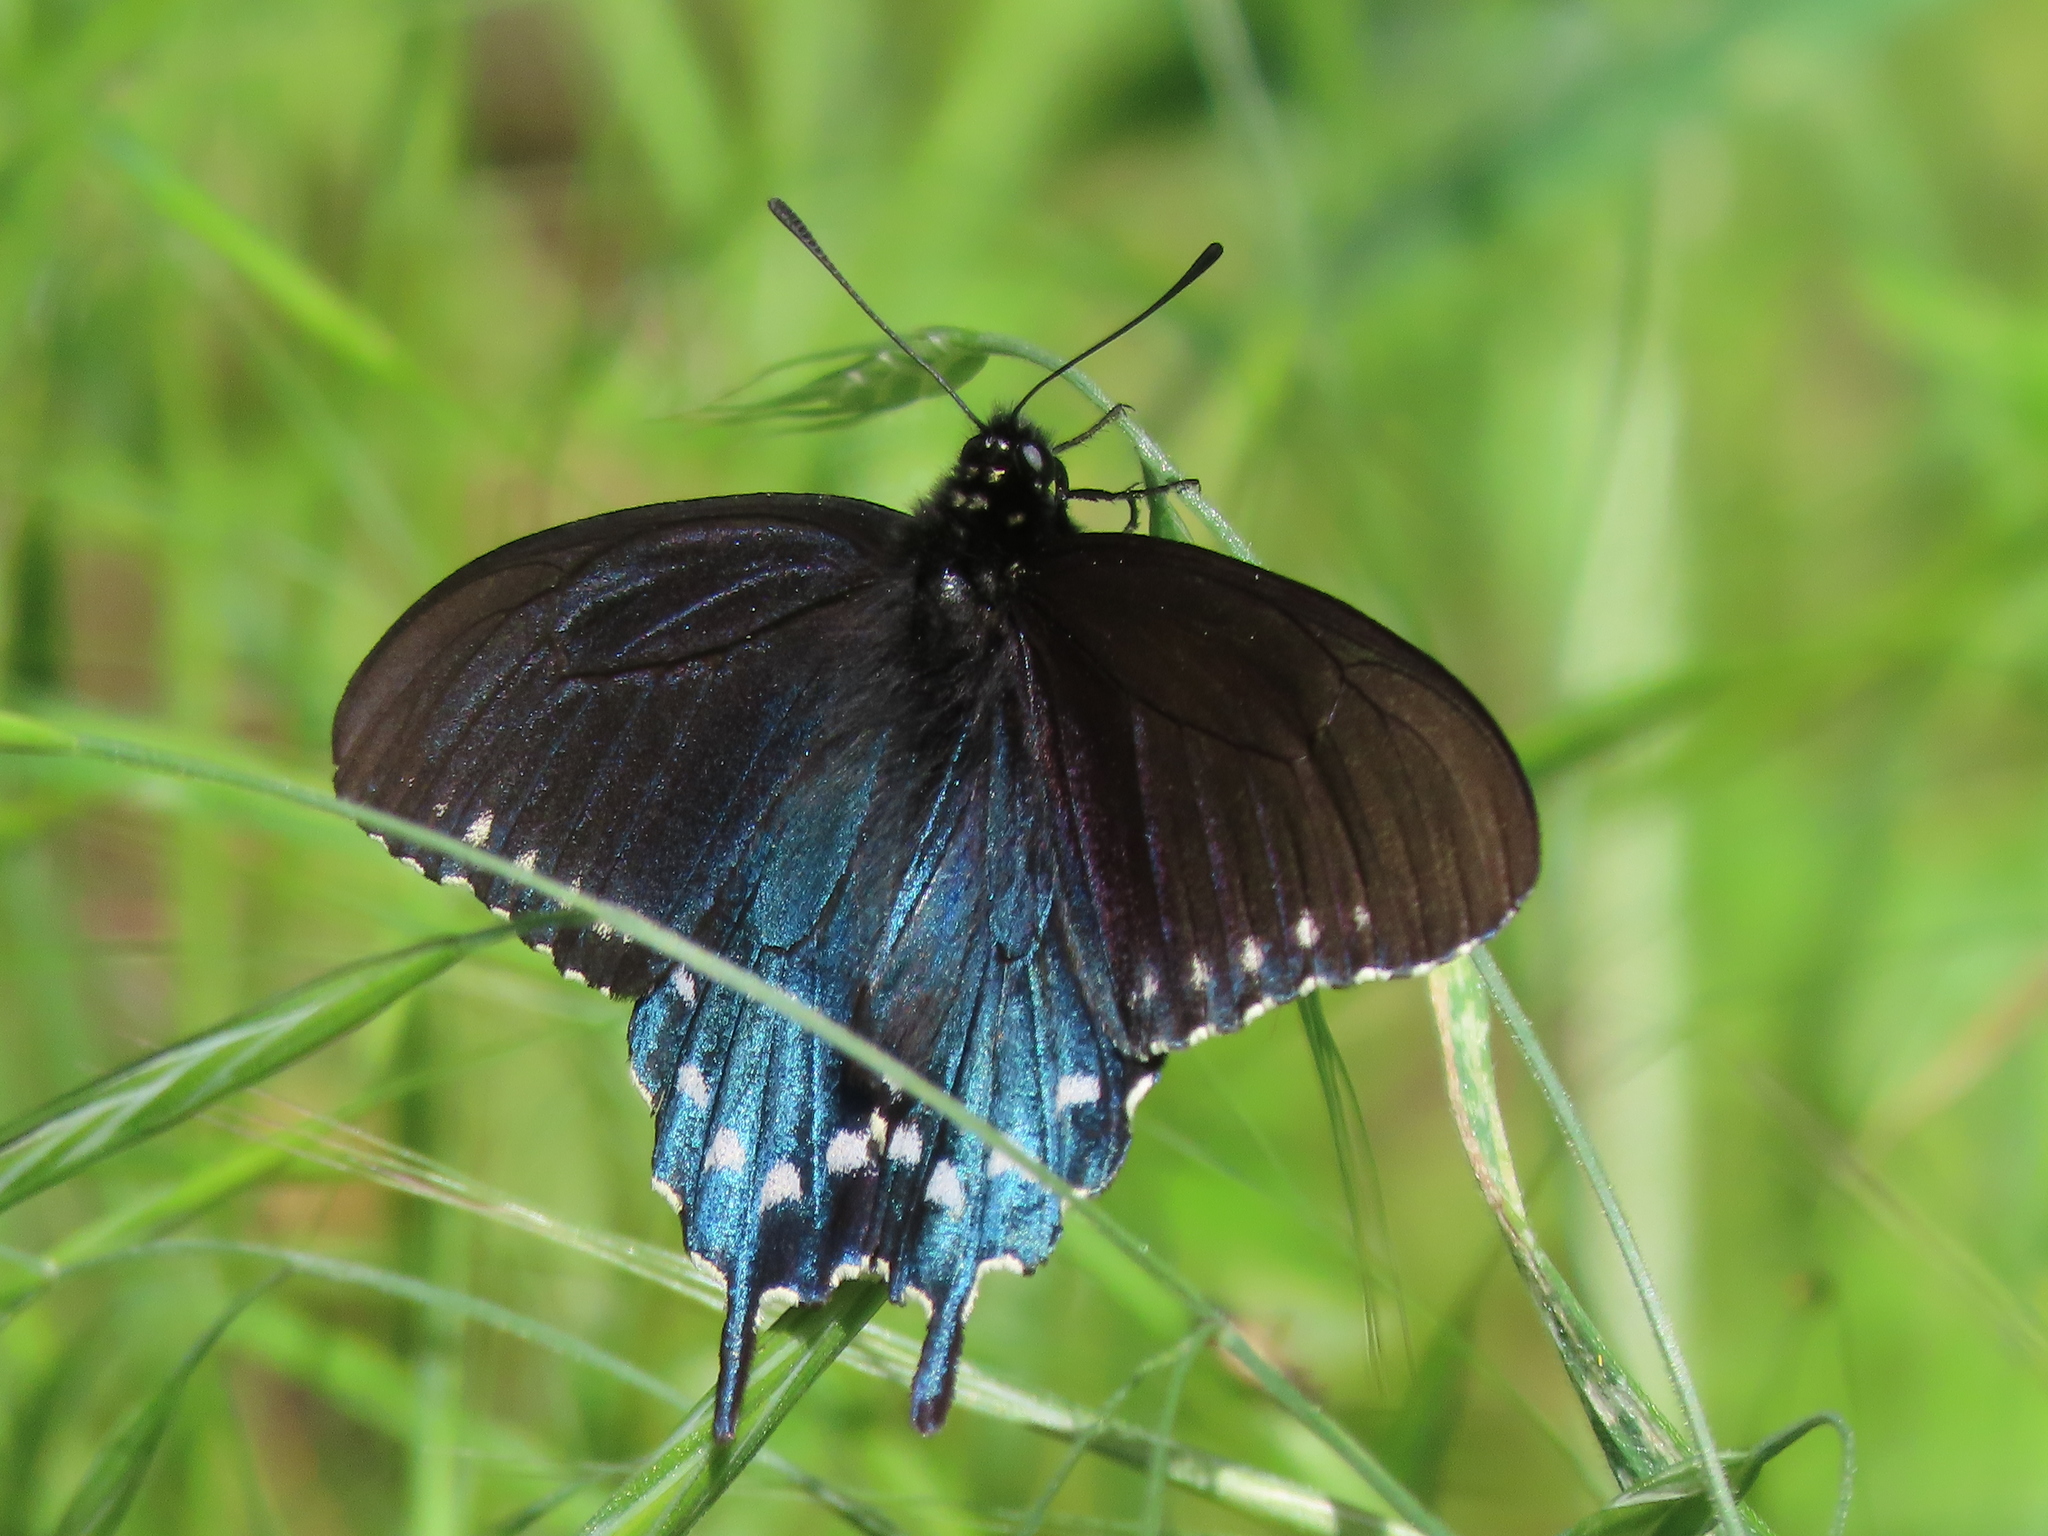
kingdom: Animalia
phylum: Arthropoda
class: Insecta
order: Lepidoptera
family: Papilionidae
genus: Battus
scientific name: Battus philenor
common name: Pipevine swallowtail
